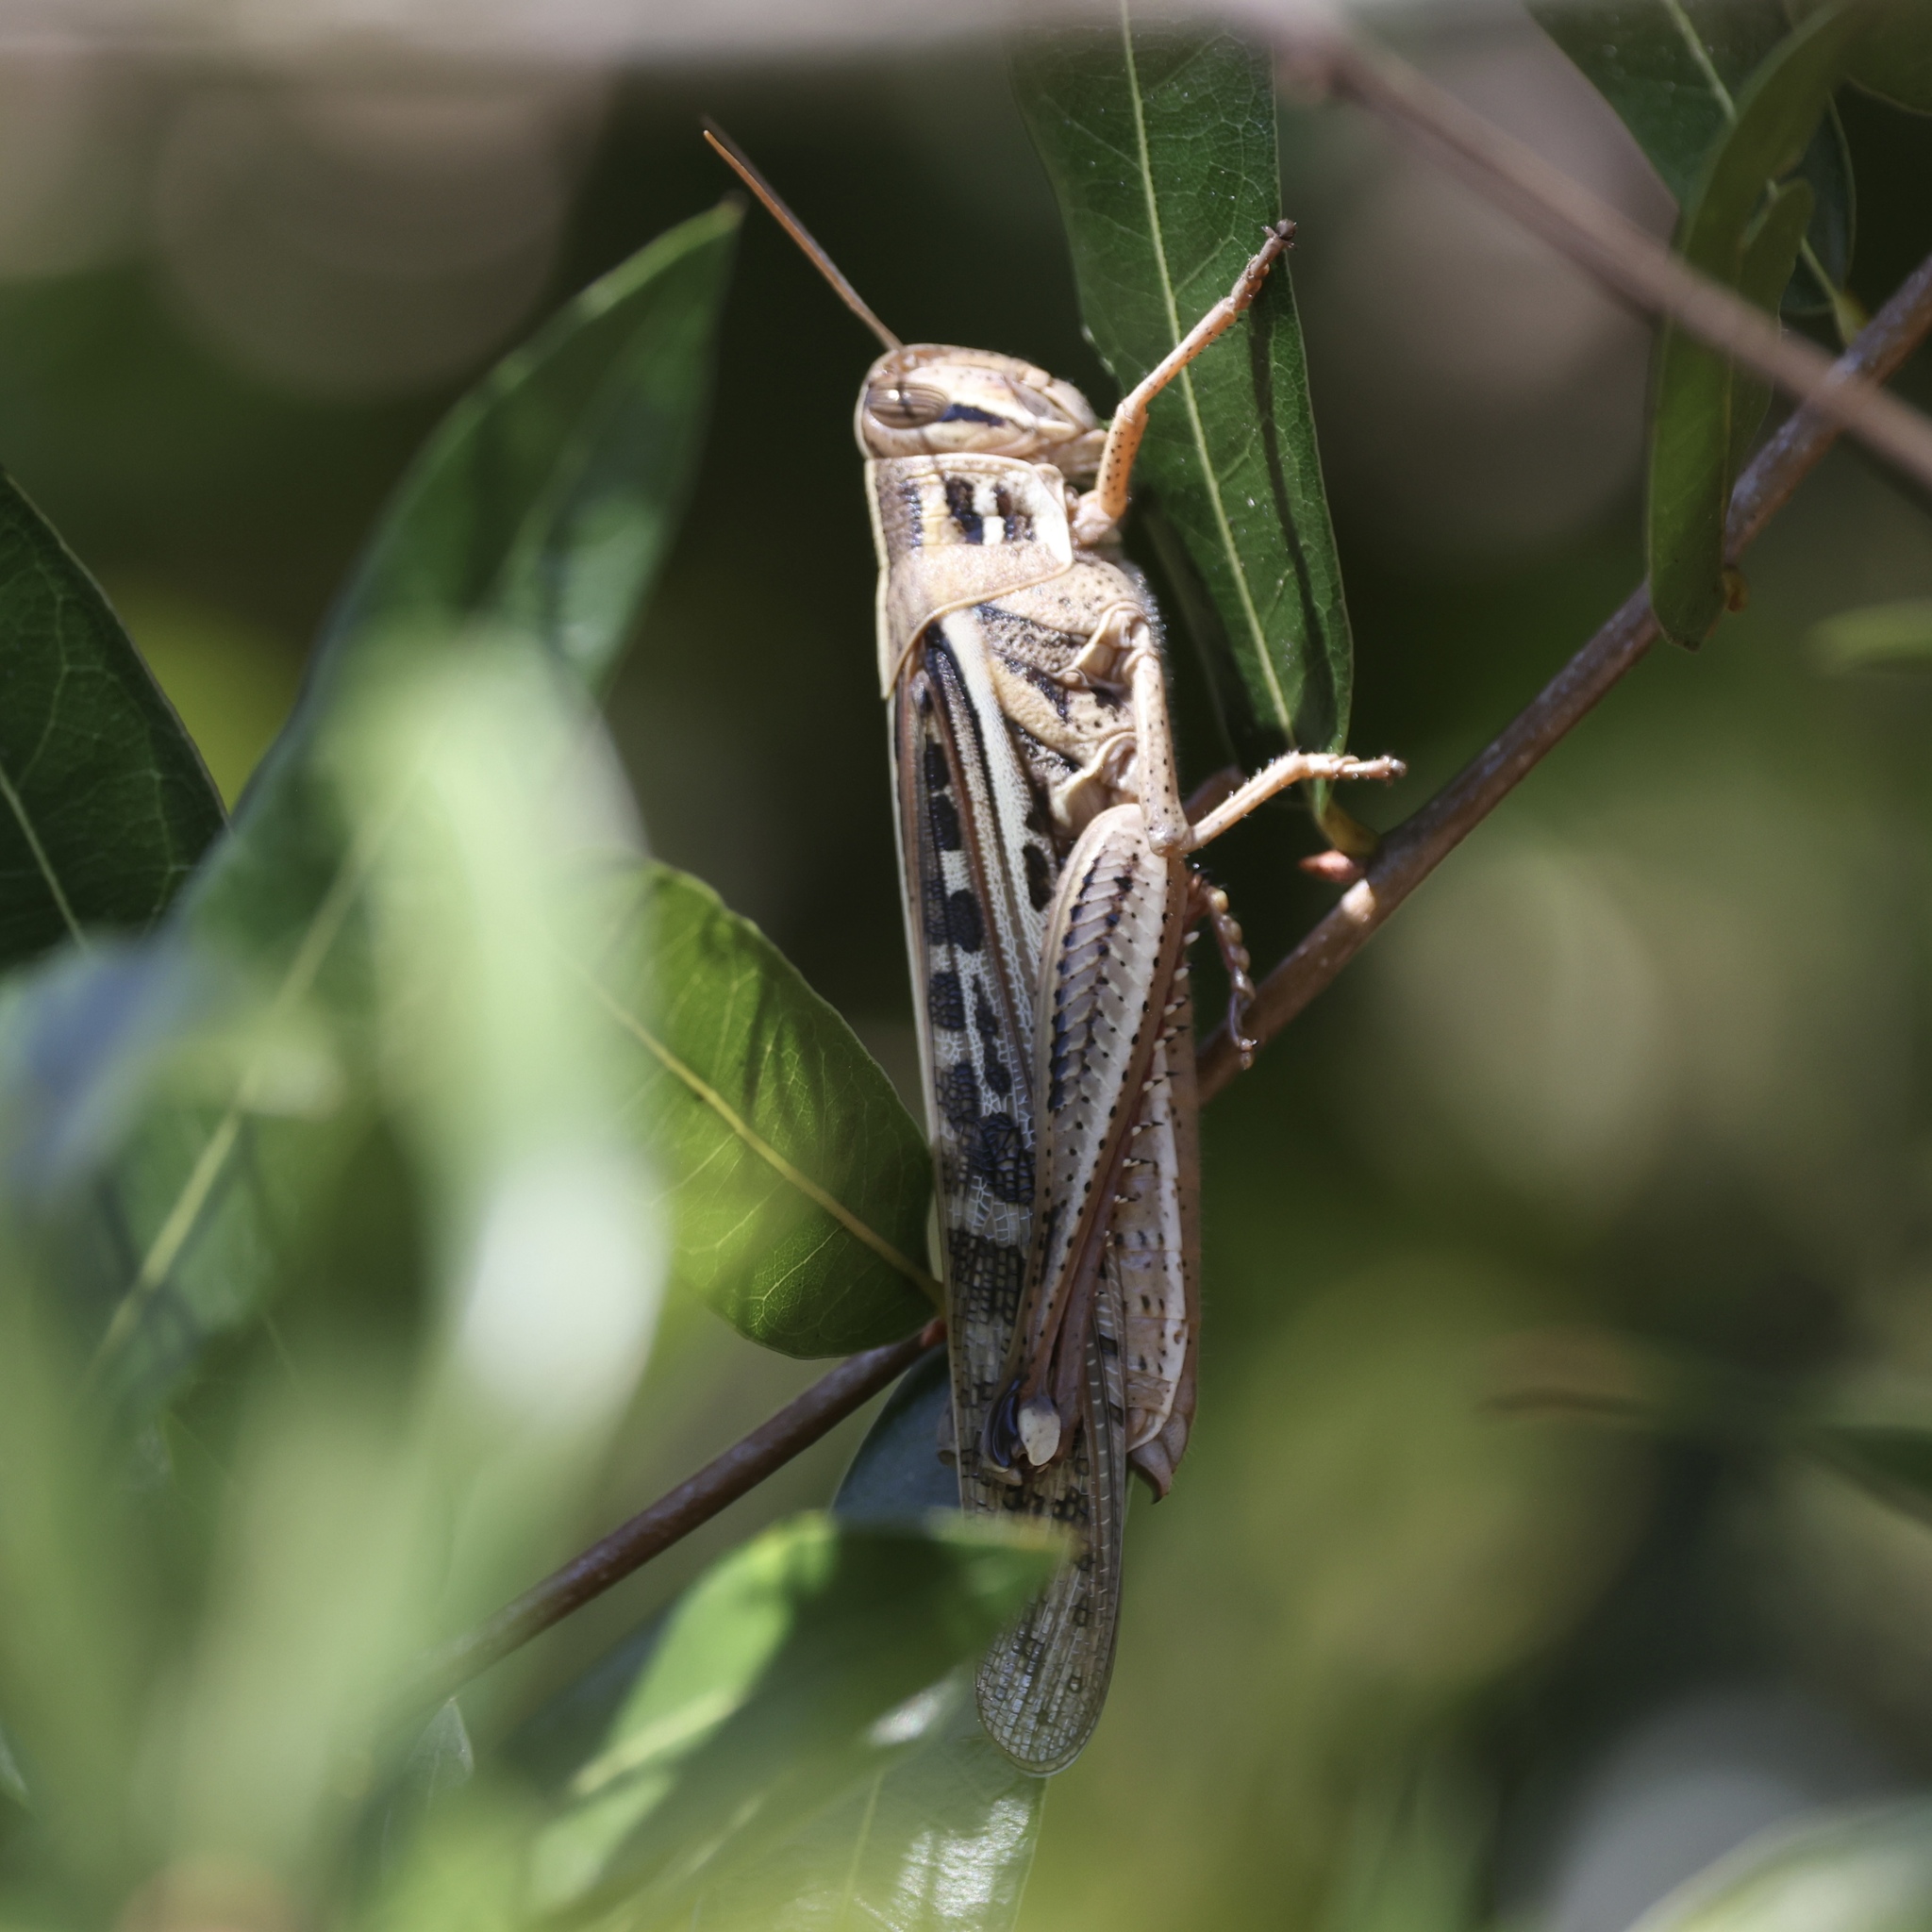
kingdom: Animalia
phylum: Arthropoda
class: Insecta
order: Orthoptera
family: Acrididae
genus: Schistocerca
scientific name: Schistocerca serialis
